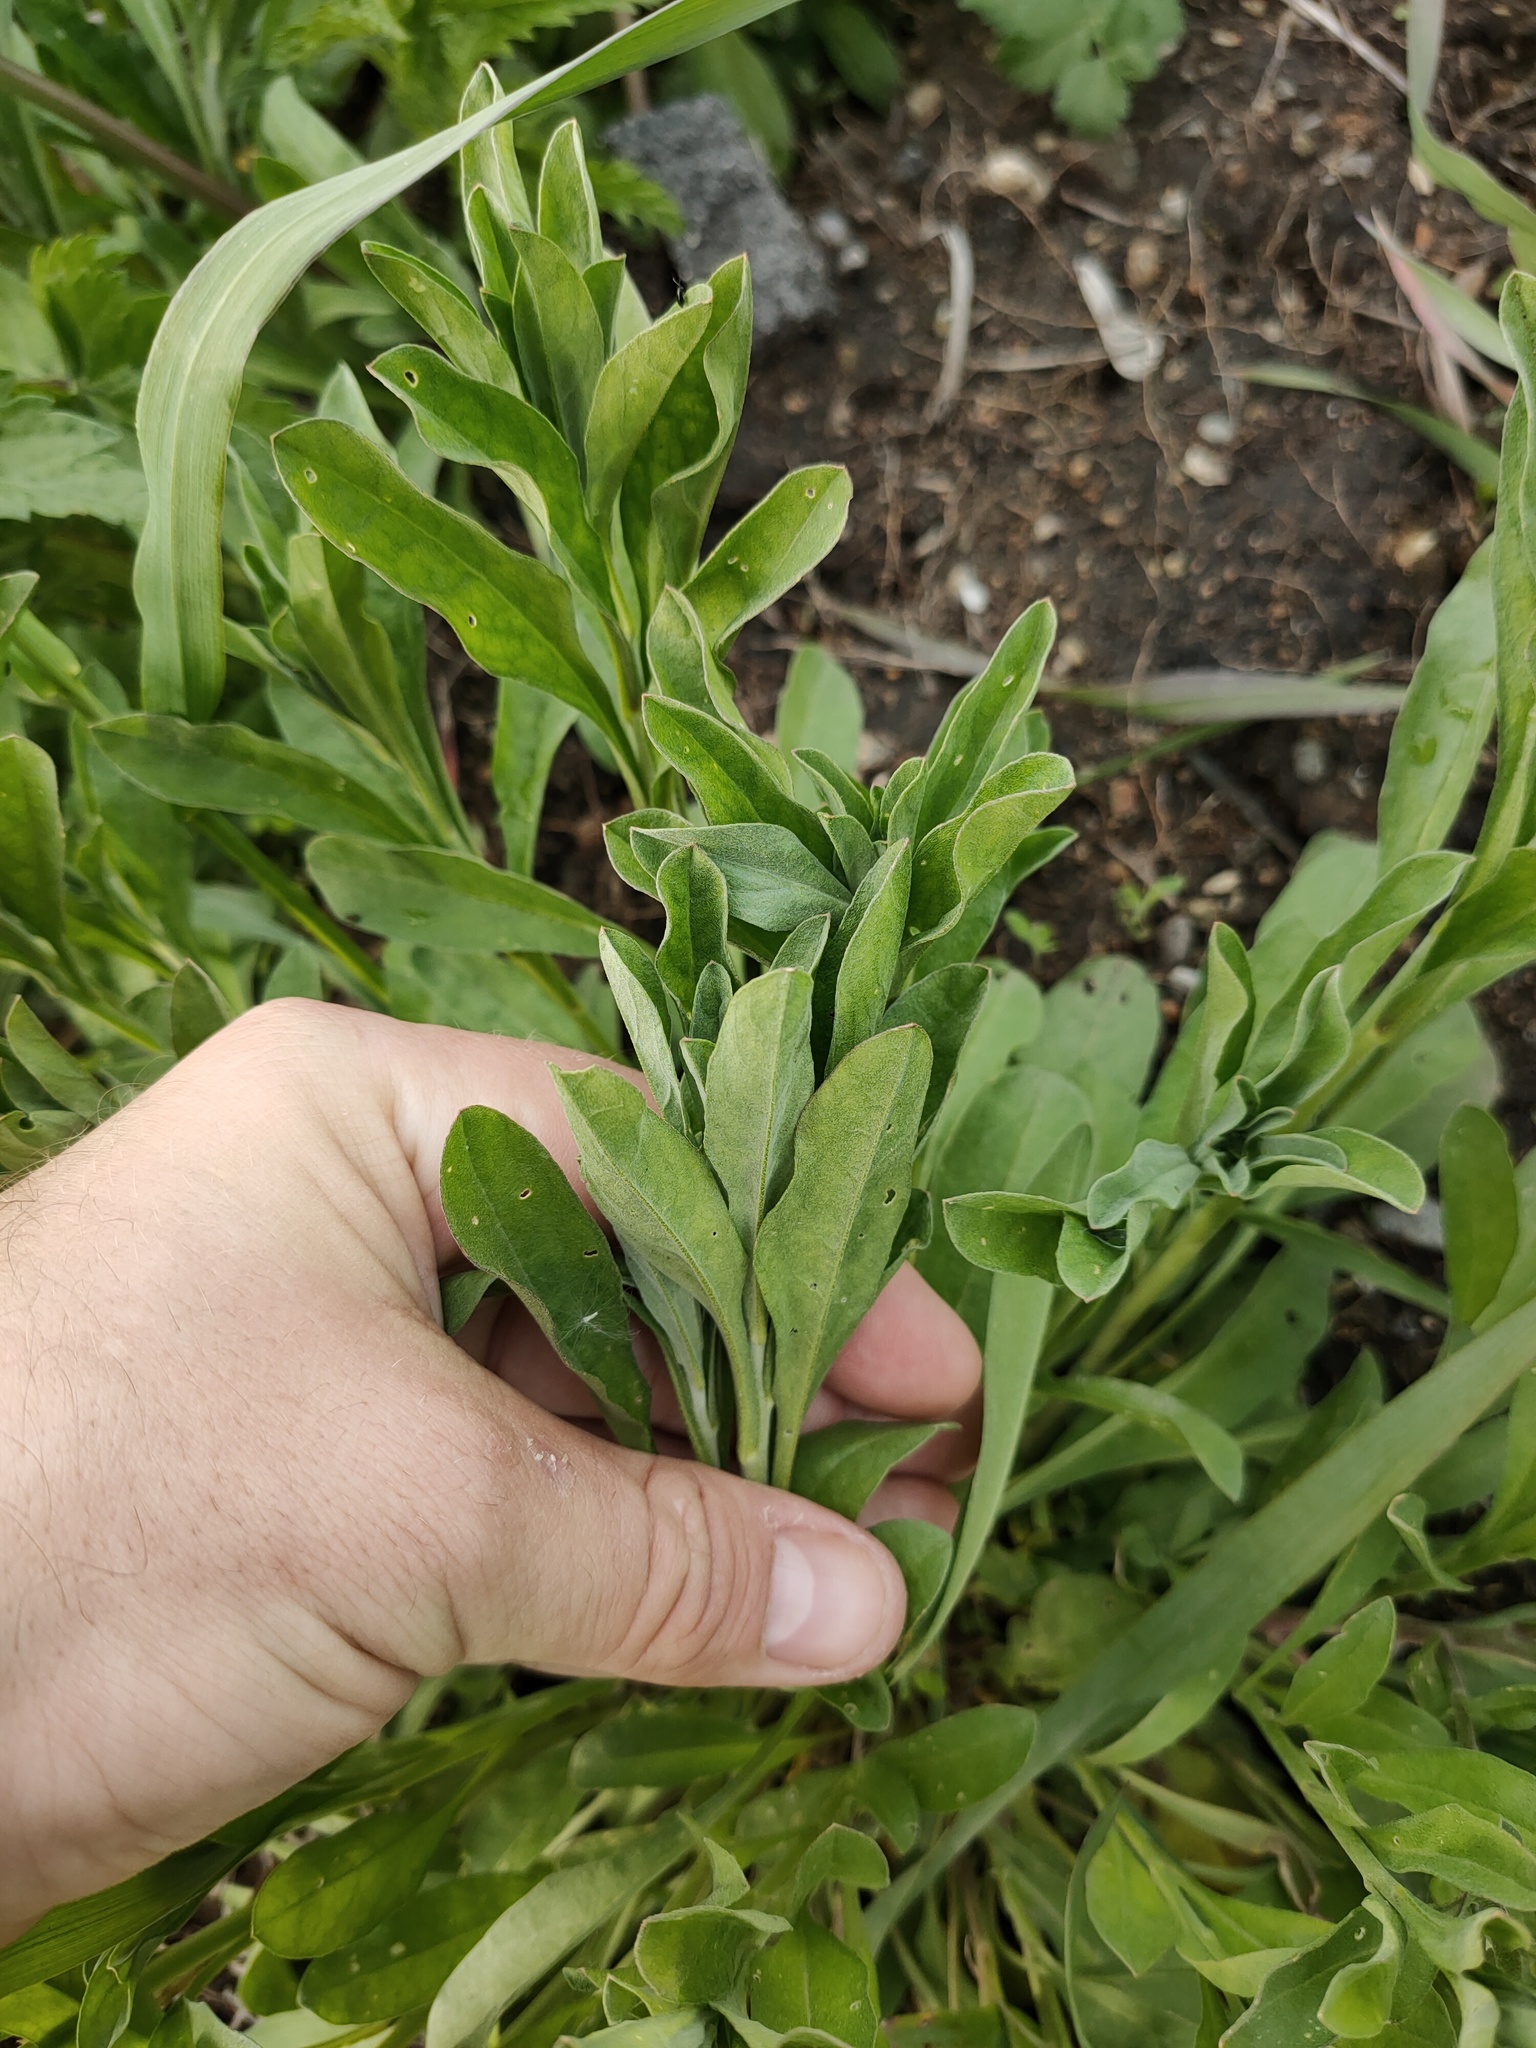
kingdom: Plantae
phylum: Tracheophyta
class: Magnoliopsida
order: Brassicales
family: Brassicaceae
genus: Berteroa
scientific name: Berteroa incana
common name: Hoary alison
